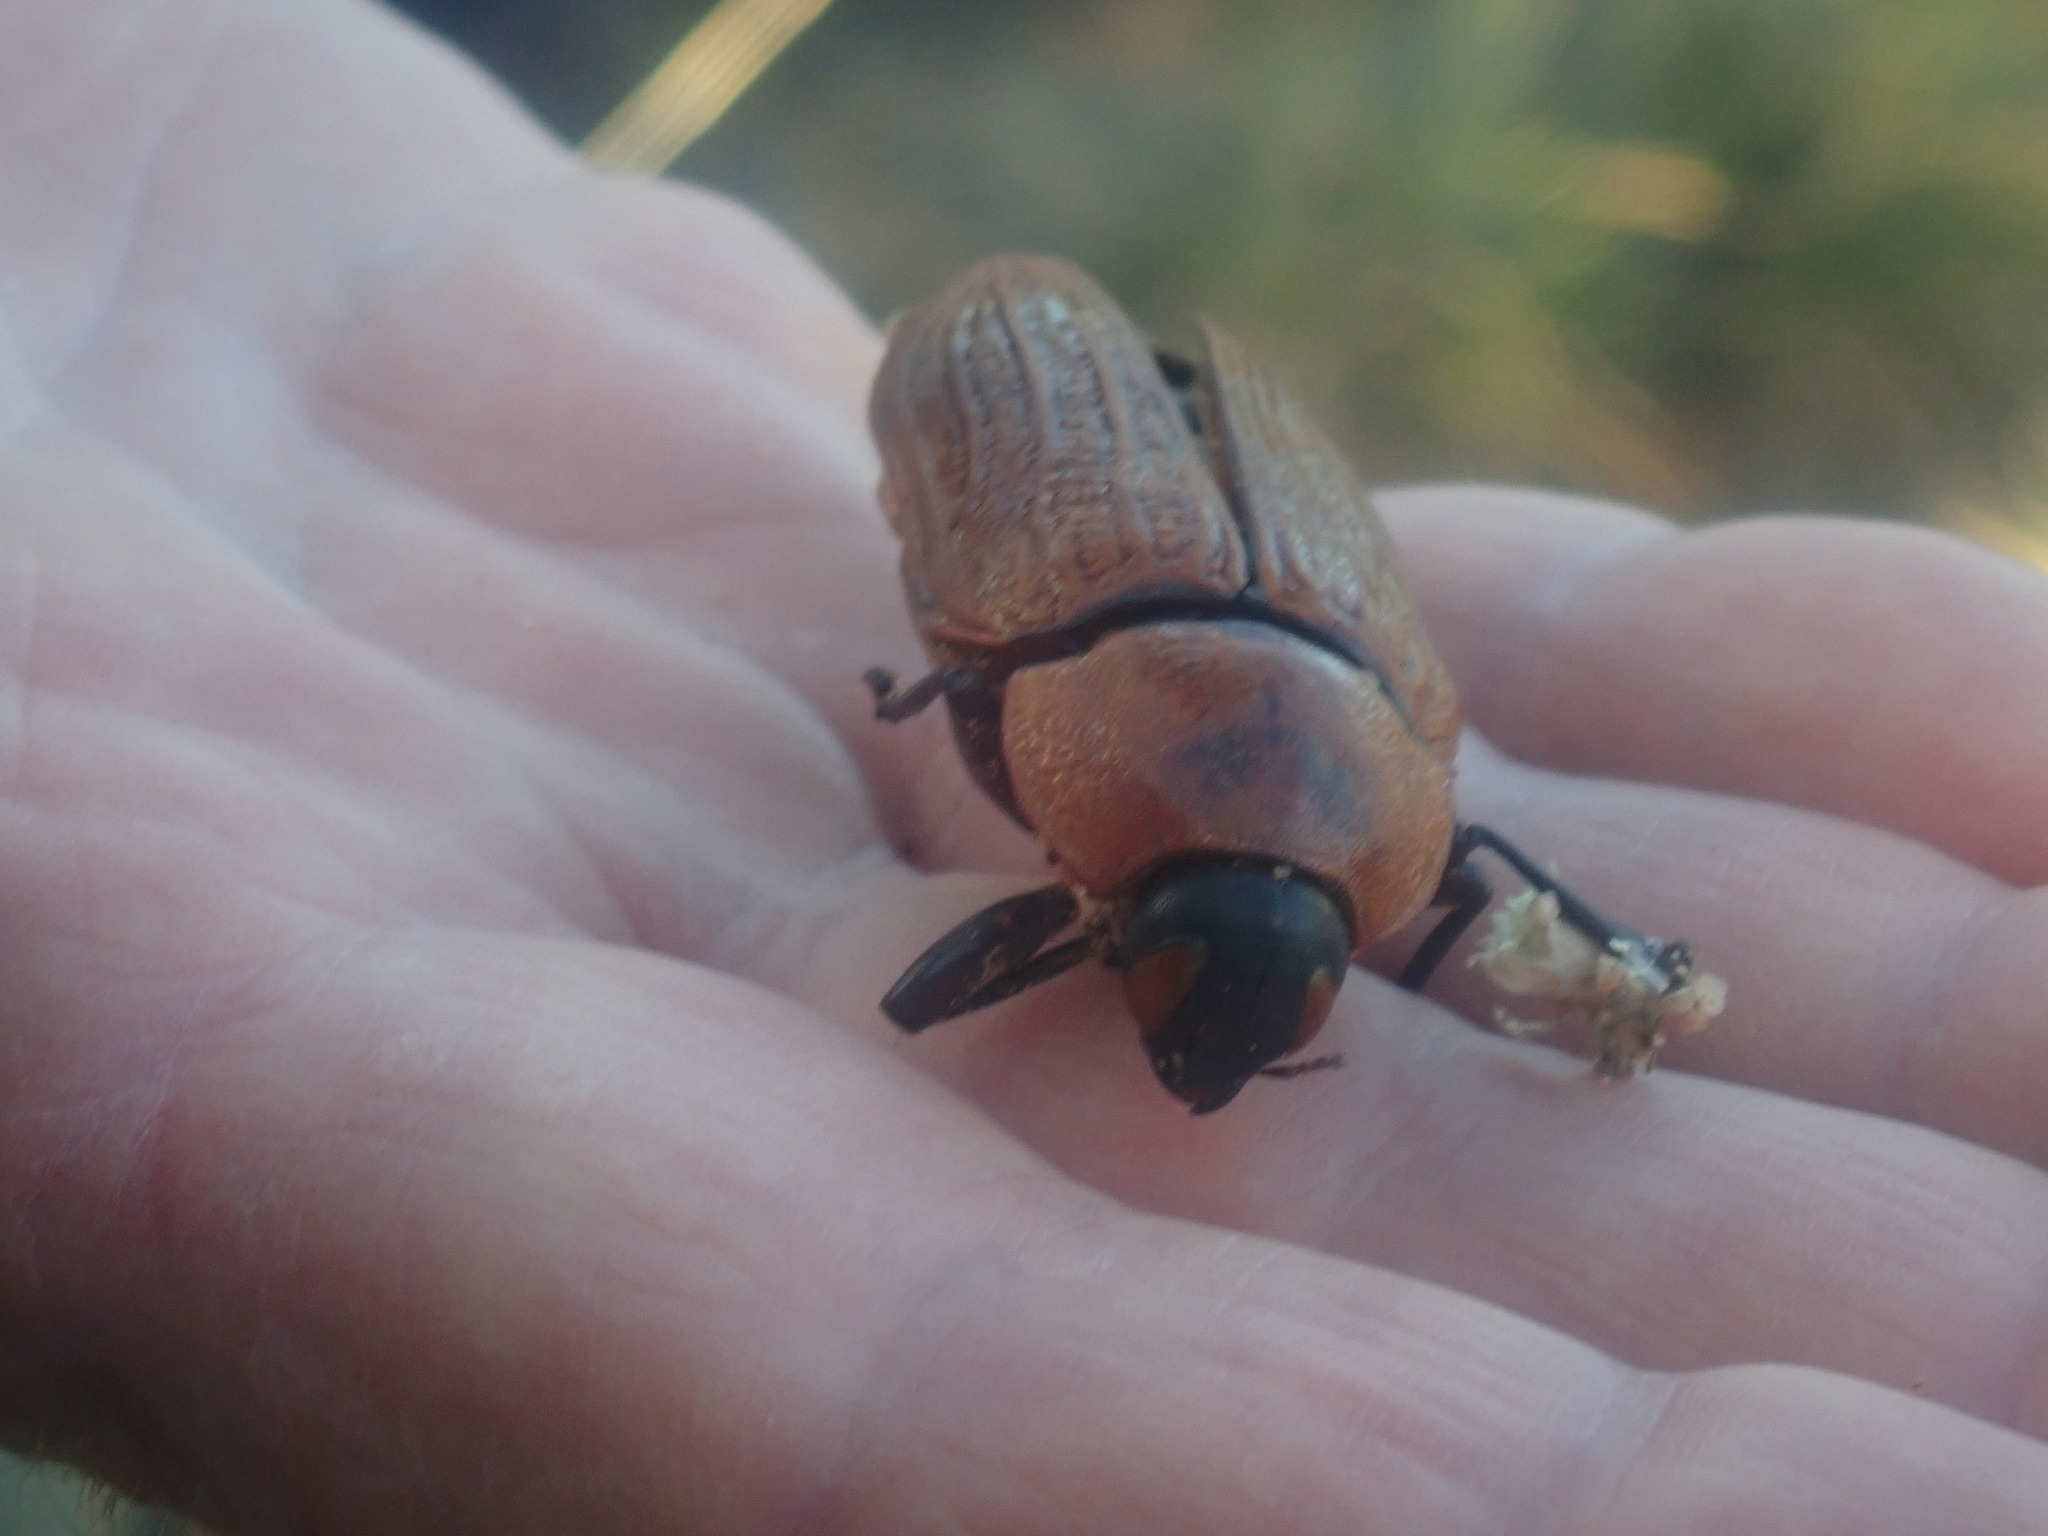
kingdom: Animalia
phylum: Arthropoda
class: Insecta
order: Coleoptera
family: Buprestidae
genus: Temognatha
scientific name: Temognatha heros
